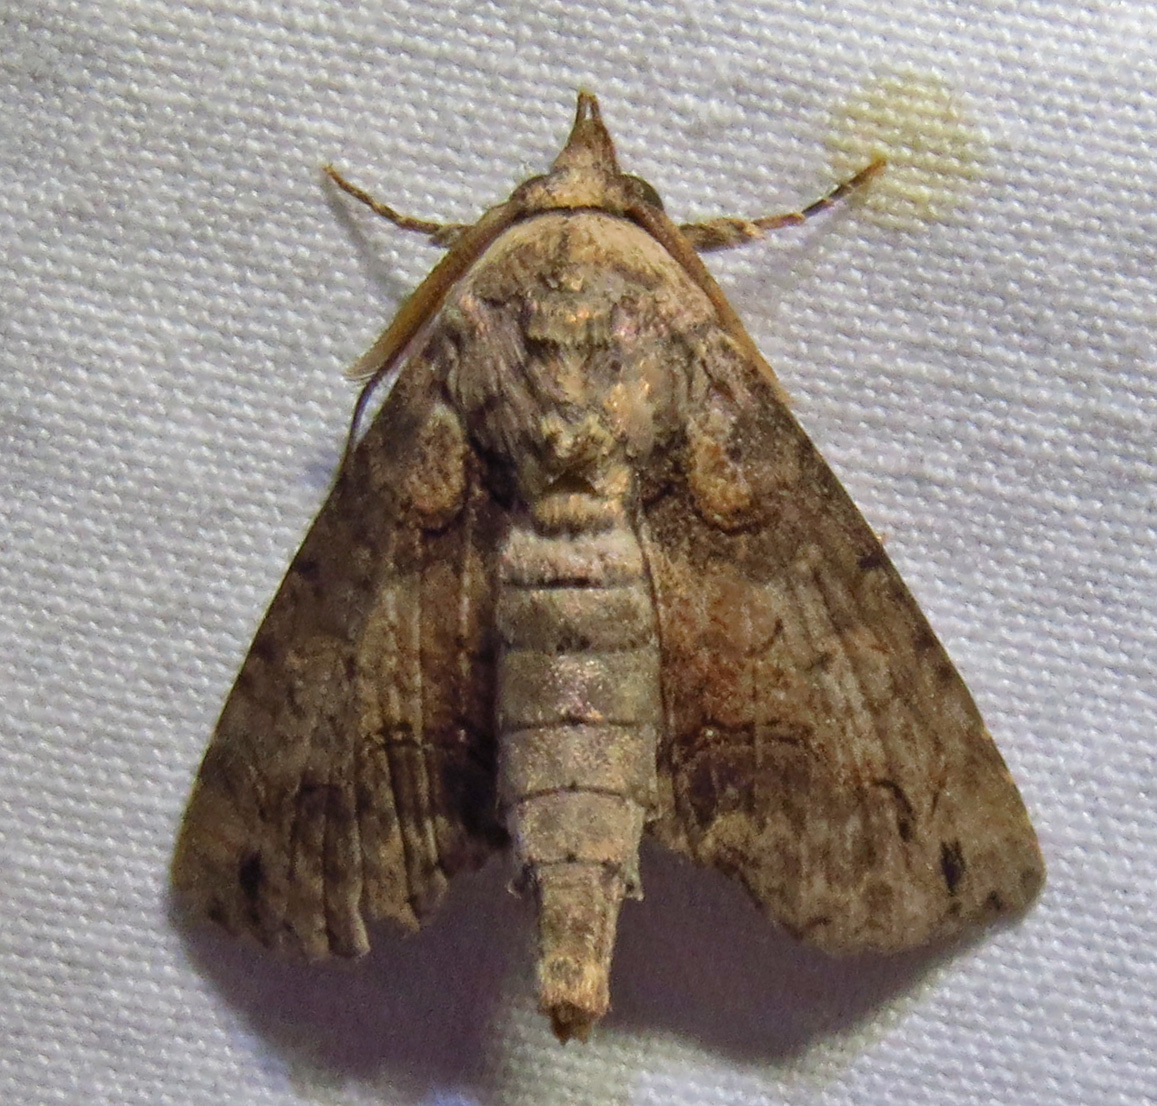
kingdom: Animalia
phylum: Arthropoda
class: Insecta
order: Lepidoptera
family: Euteliidae
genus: Paectes
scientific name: Paectes abrostoloides
